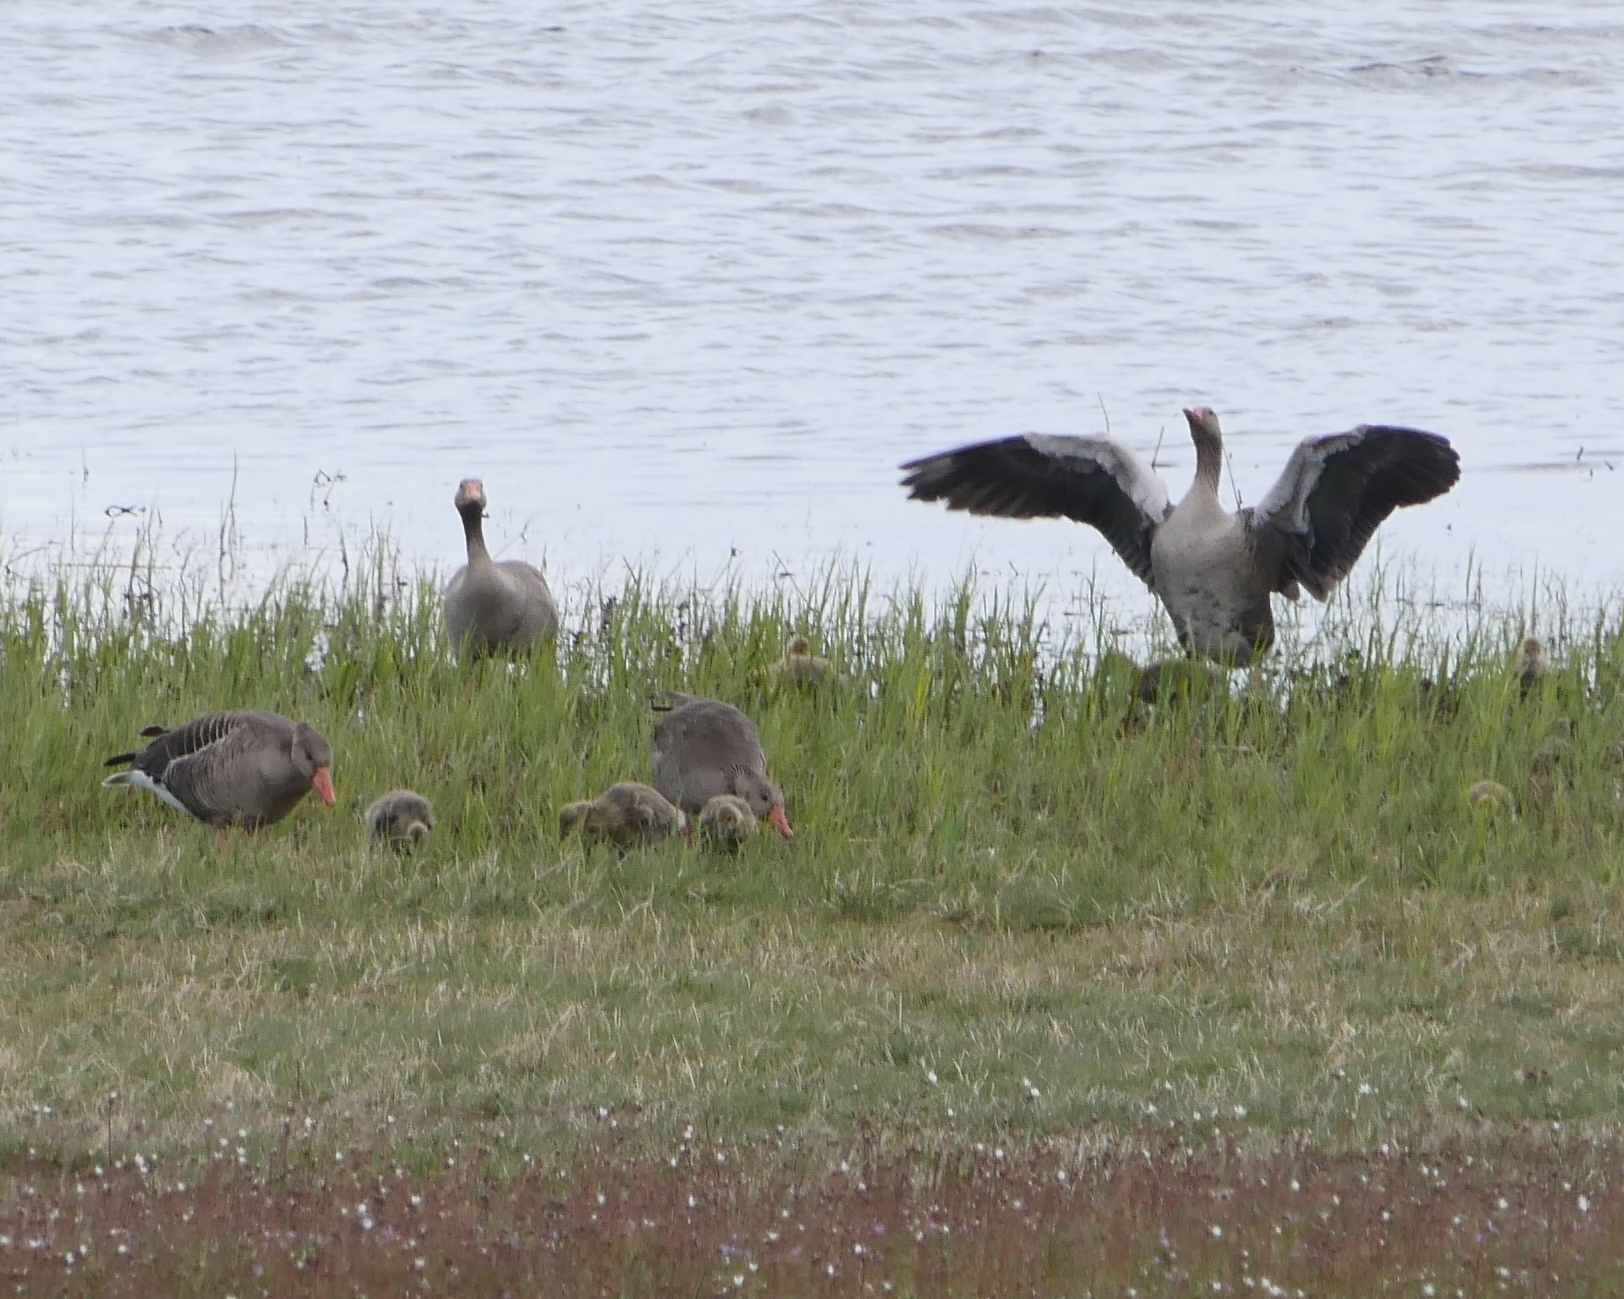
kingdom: Animalia
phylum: Chordata
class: Aves
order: Anseriformes
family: Anatidae
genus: Anser
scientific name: Anser anser
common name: Greylag goose
